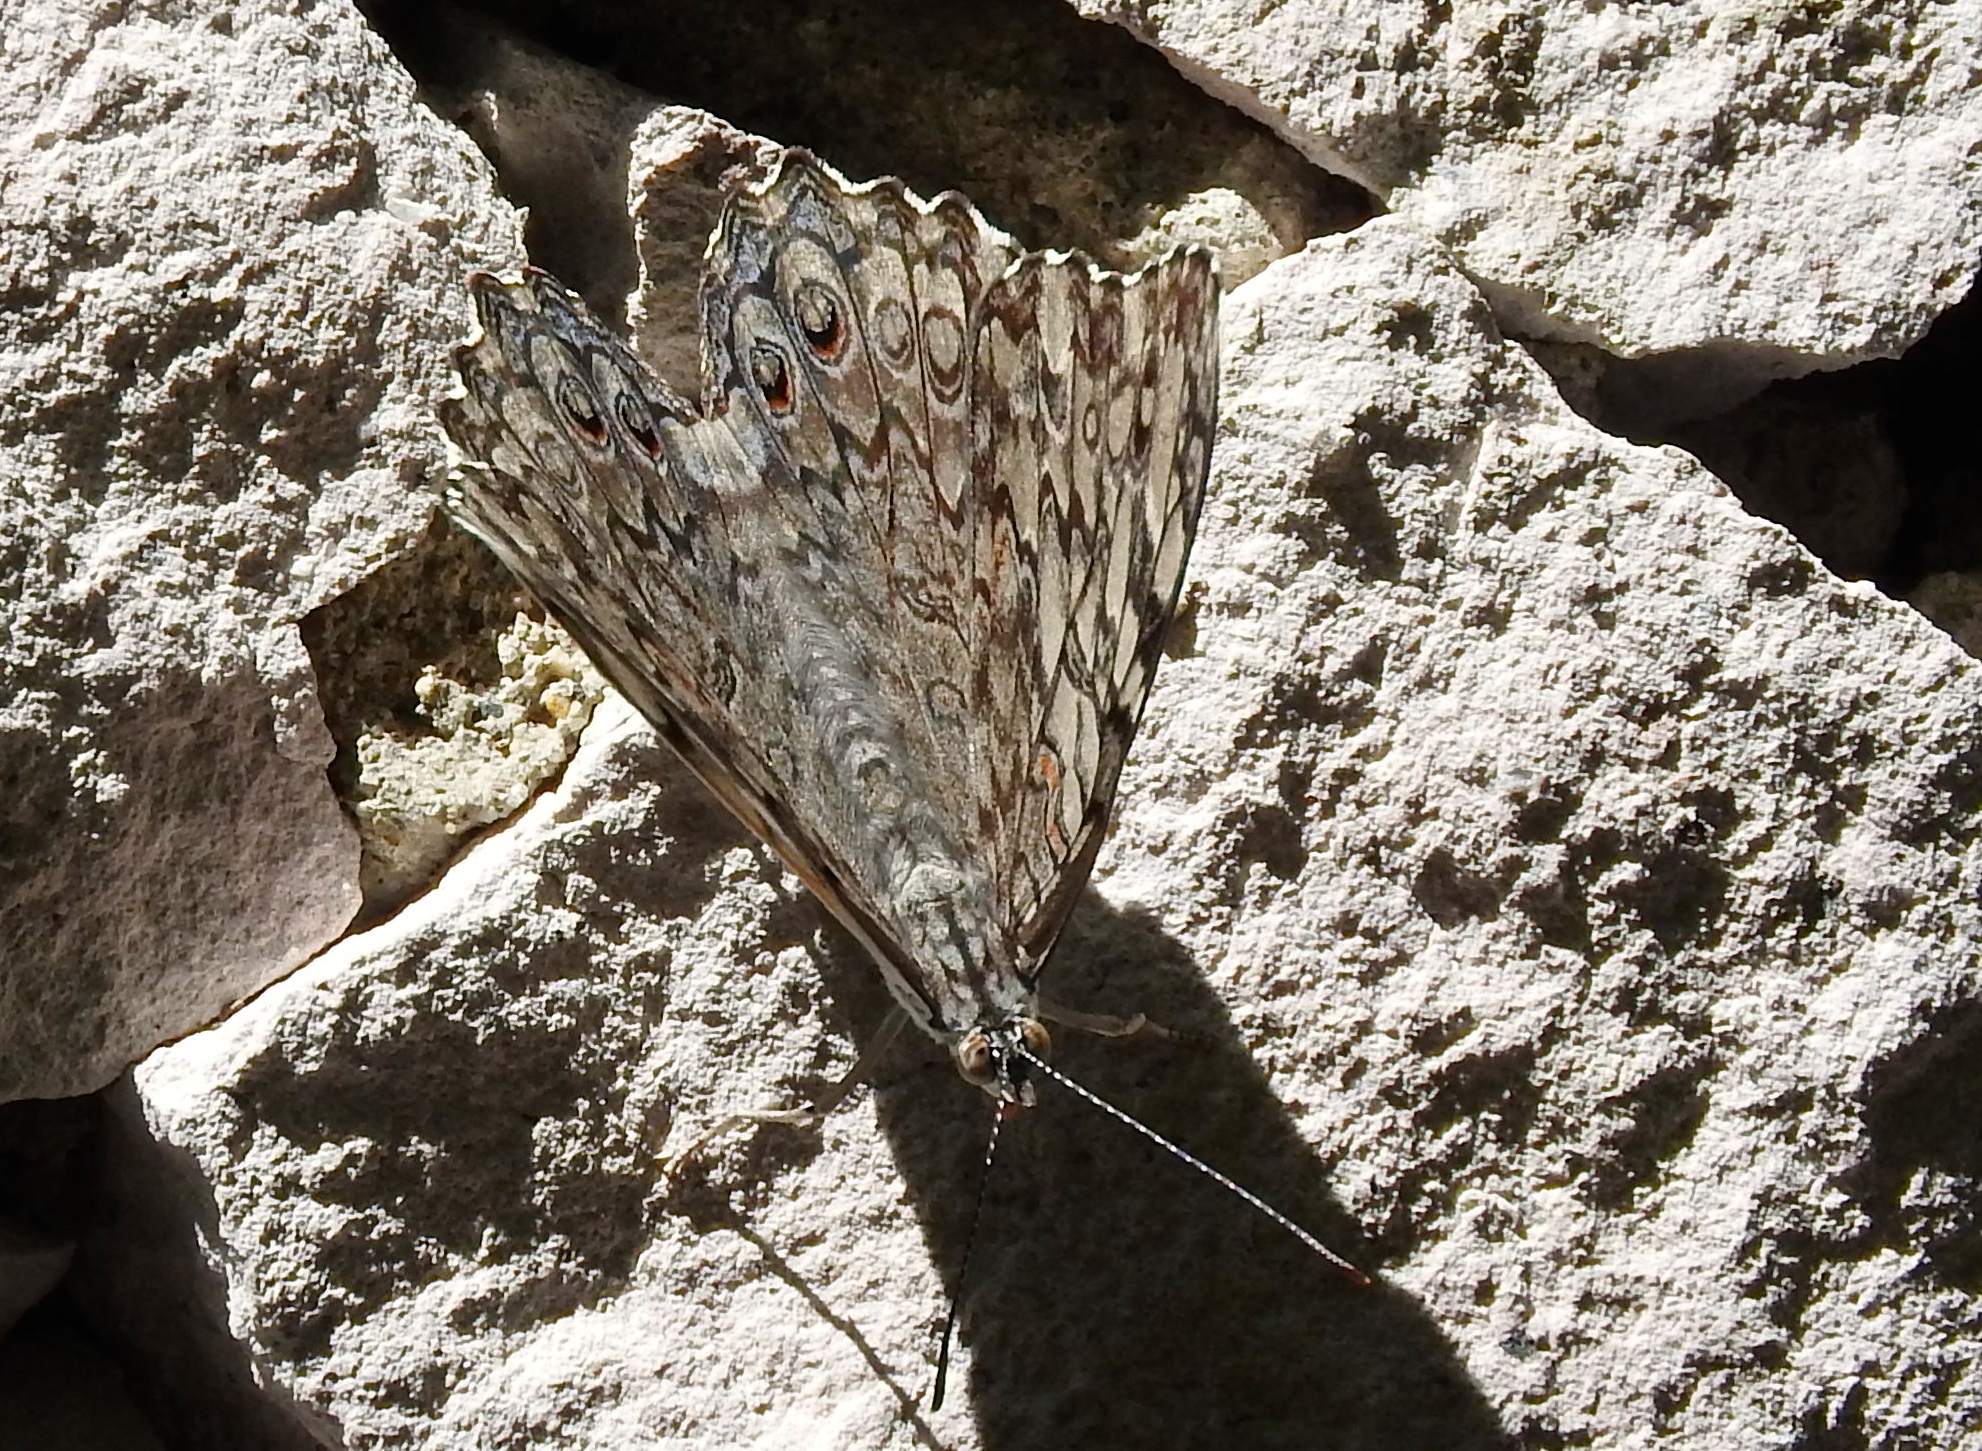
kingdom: Animalia
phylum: Arthropoda
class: Insecta
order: Lepidoptera
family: Nymphalidae
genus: Hamadryas
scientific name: Hamadryas februa
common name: Gray cracker
